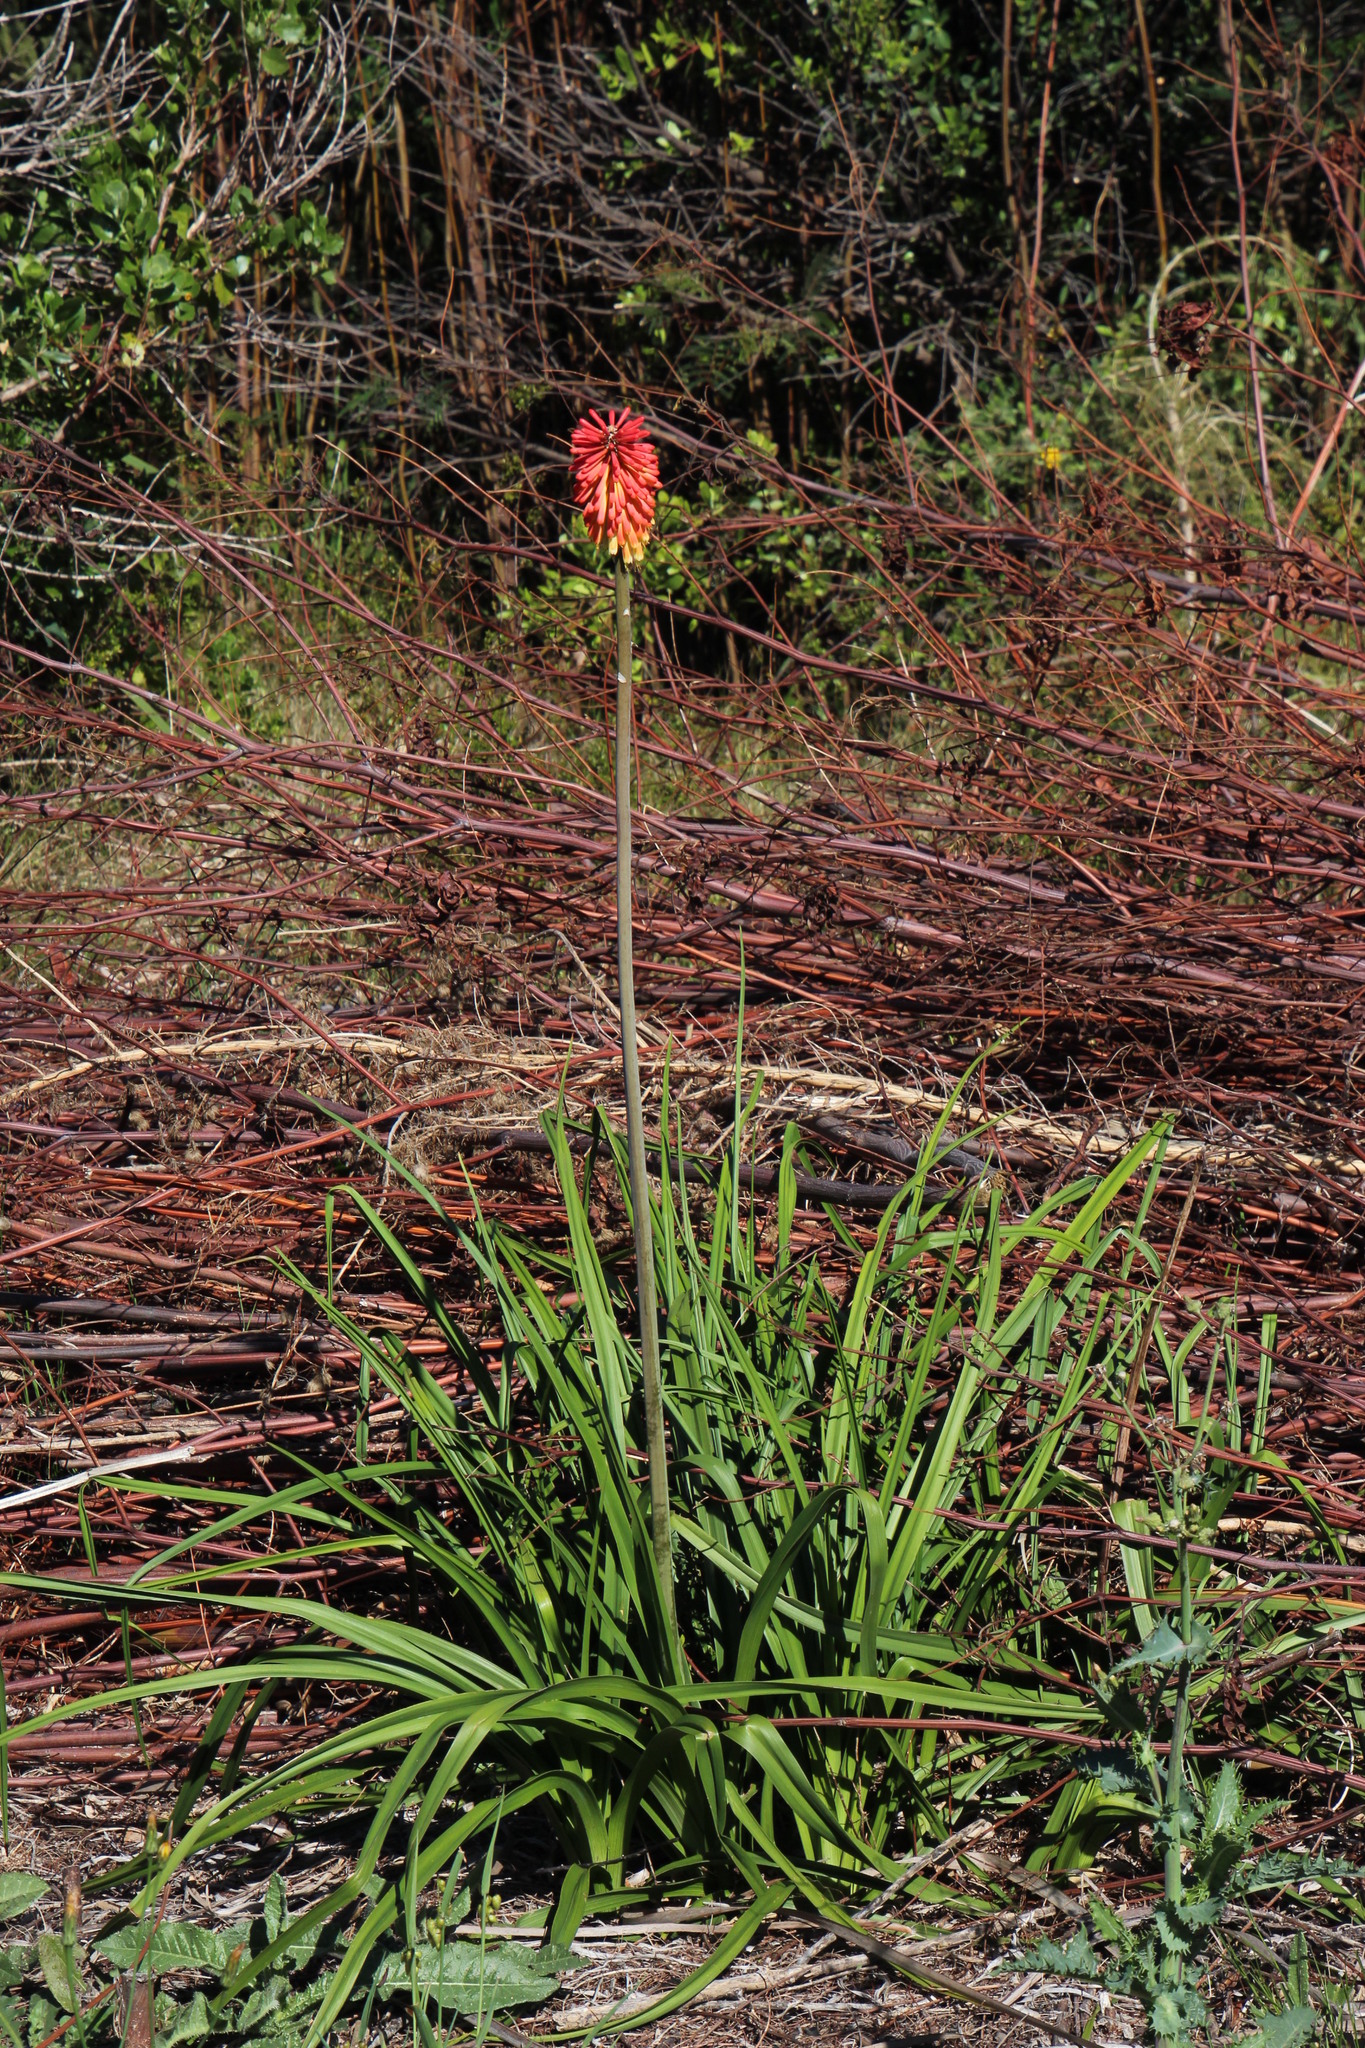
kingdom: Plantae
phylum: Tracheophyta
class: Liliopsida
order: Asparagales
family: Asphodelaceae
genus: Kniphofia
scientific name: Kniphofia uvaria
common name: Red-hot-poker
